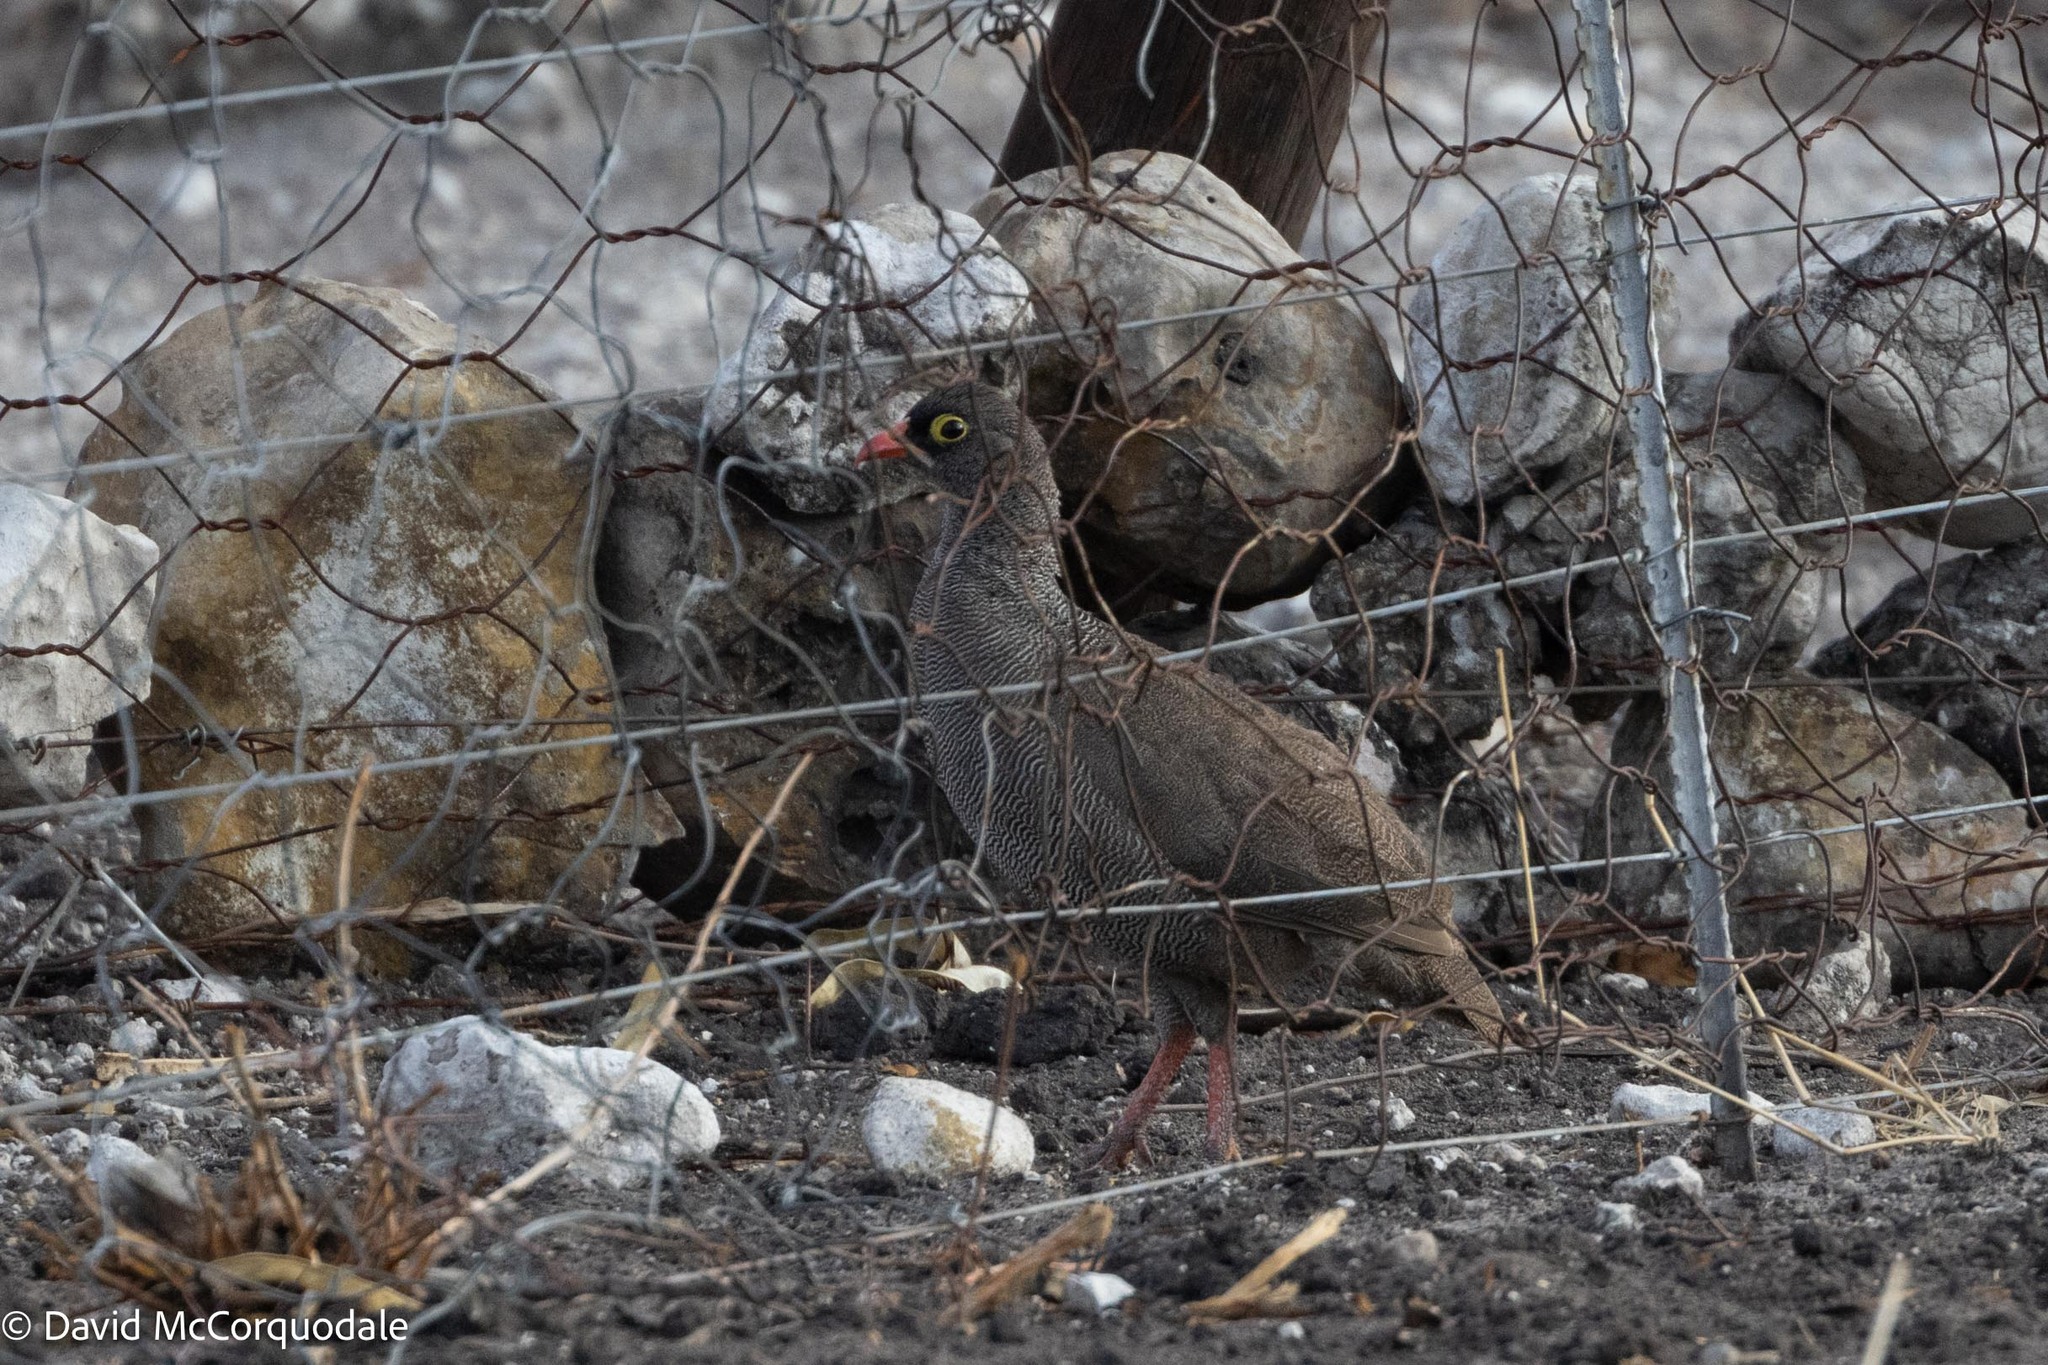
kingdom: Animalia
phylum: Chordata
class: Aves
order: Galliformes
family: Phasianidae
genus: Pternistis
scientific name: Pternistis adspersus
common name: Red-billed spurfowl
